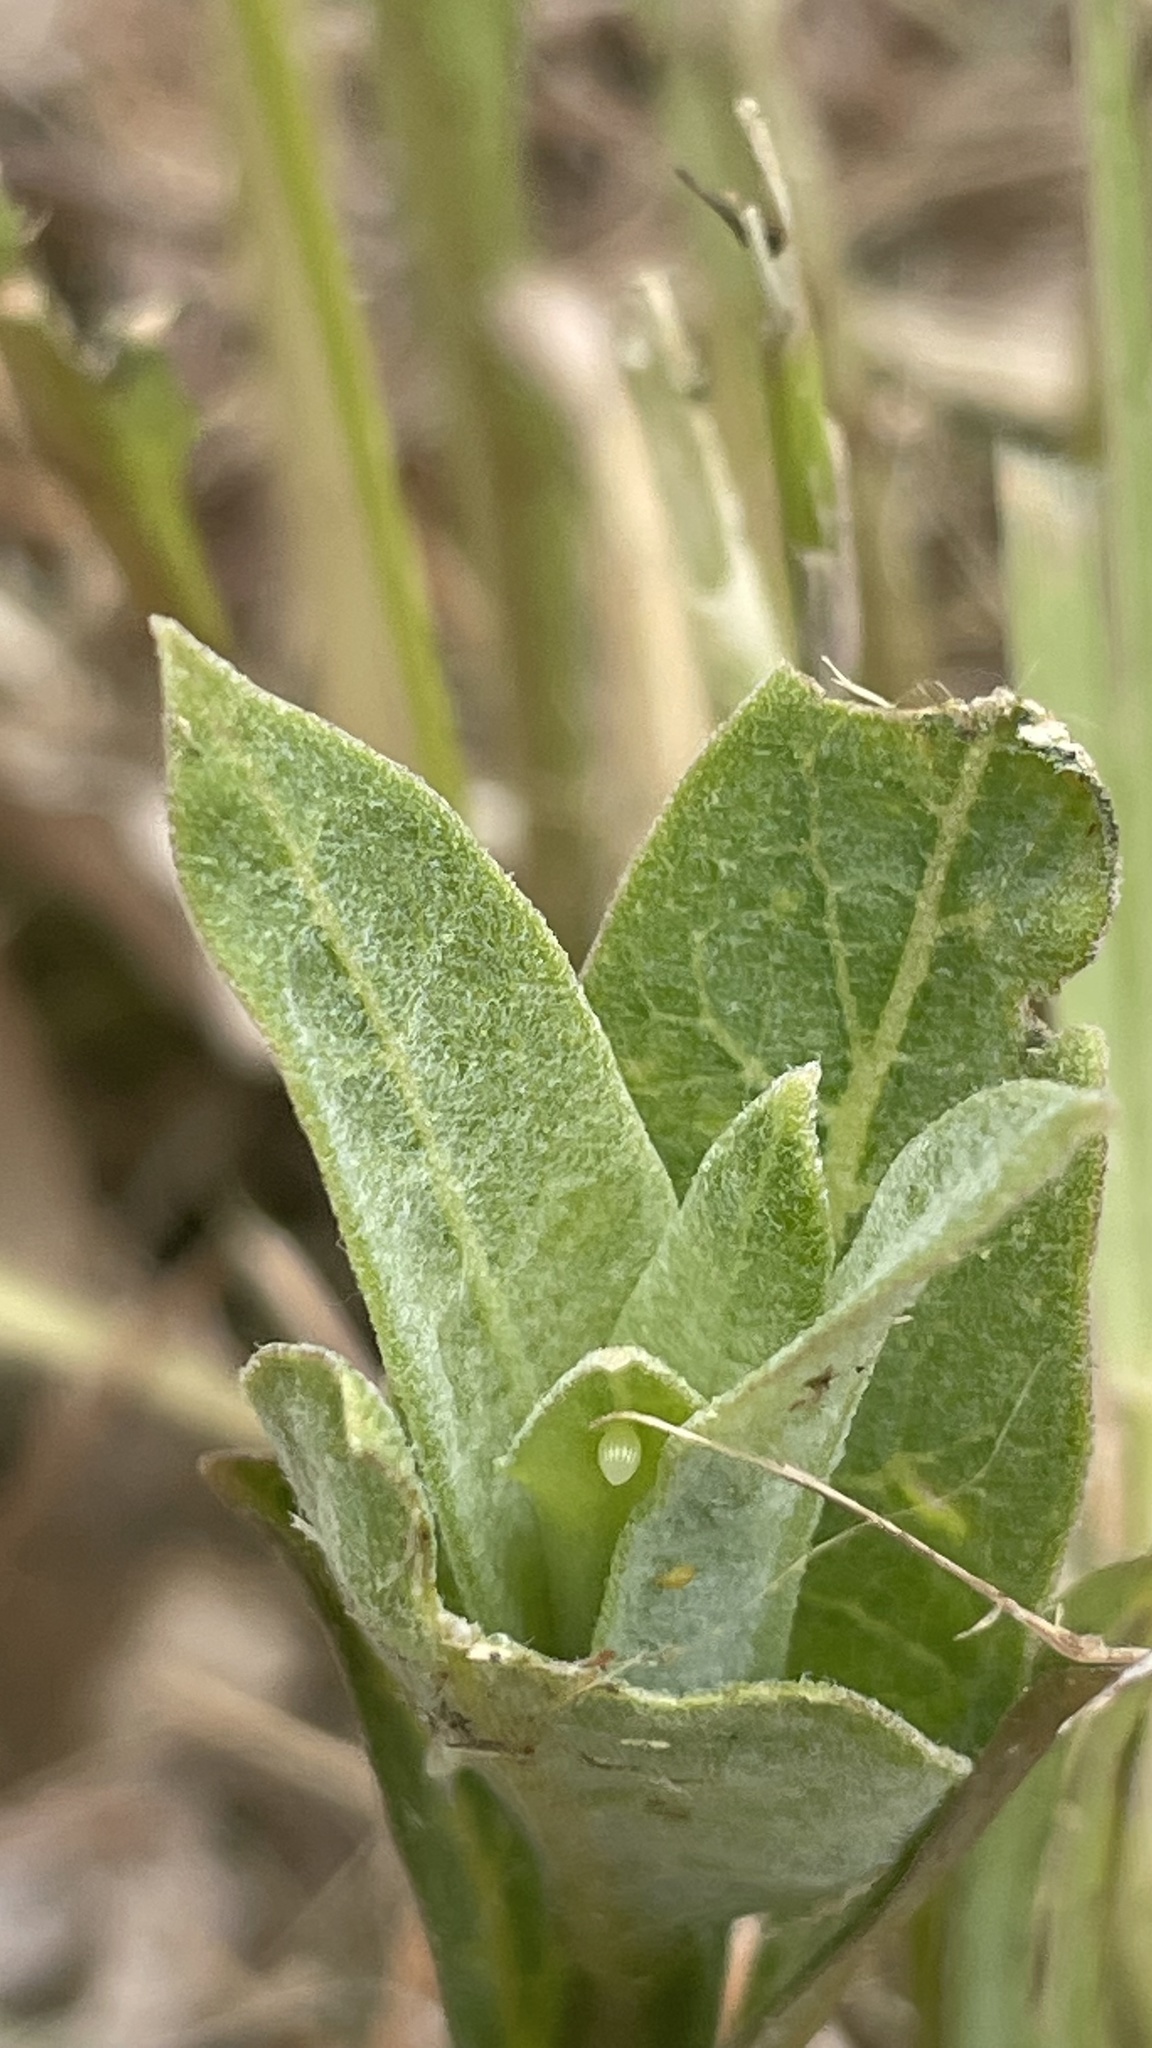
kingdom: Animalia
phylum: Arthropoda
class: Insecta
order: Lepidoptera
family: Nymphalidae
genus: Danaus
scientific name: Danaus plexippus
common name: Monarch
